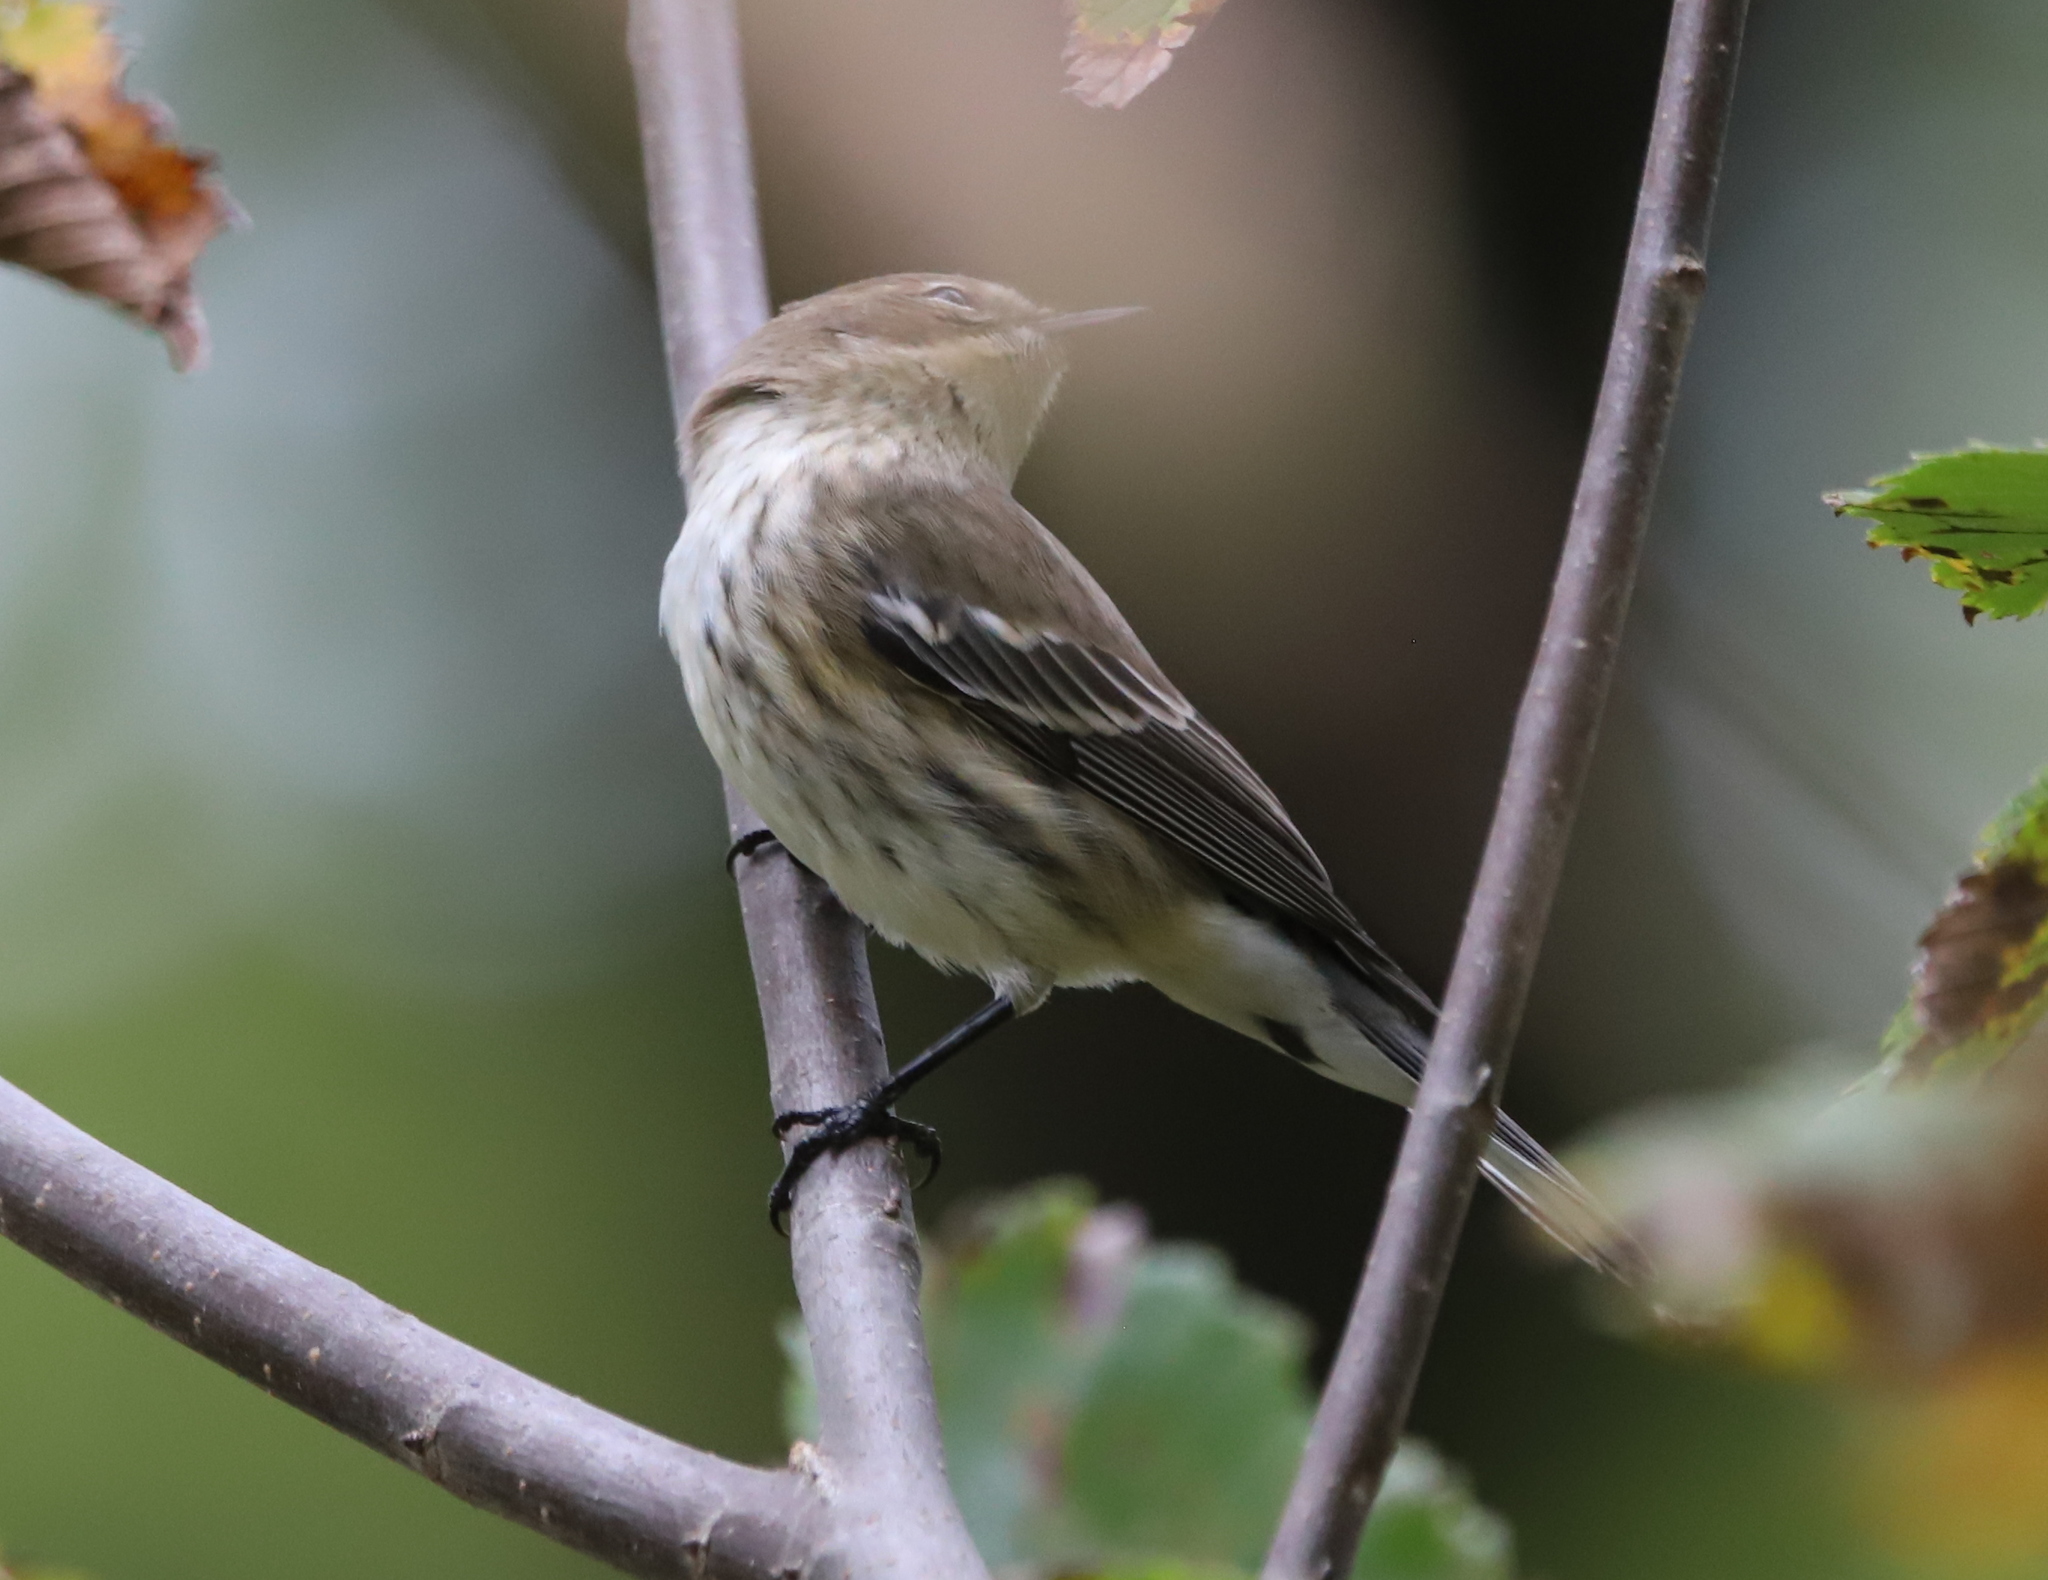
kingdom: Animalia
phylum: Chordata
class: Aves
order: Passeriformes
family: Parulidae
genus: Setophaga
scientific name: Setophaga coronata
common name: Myrtle warbler
